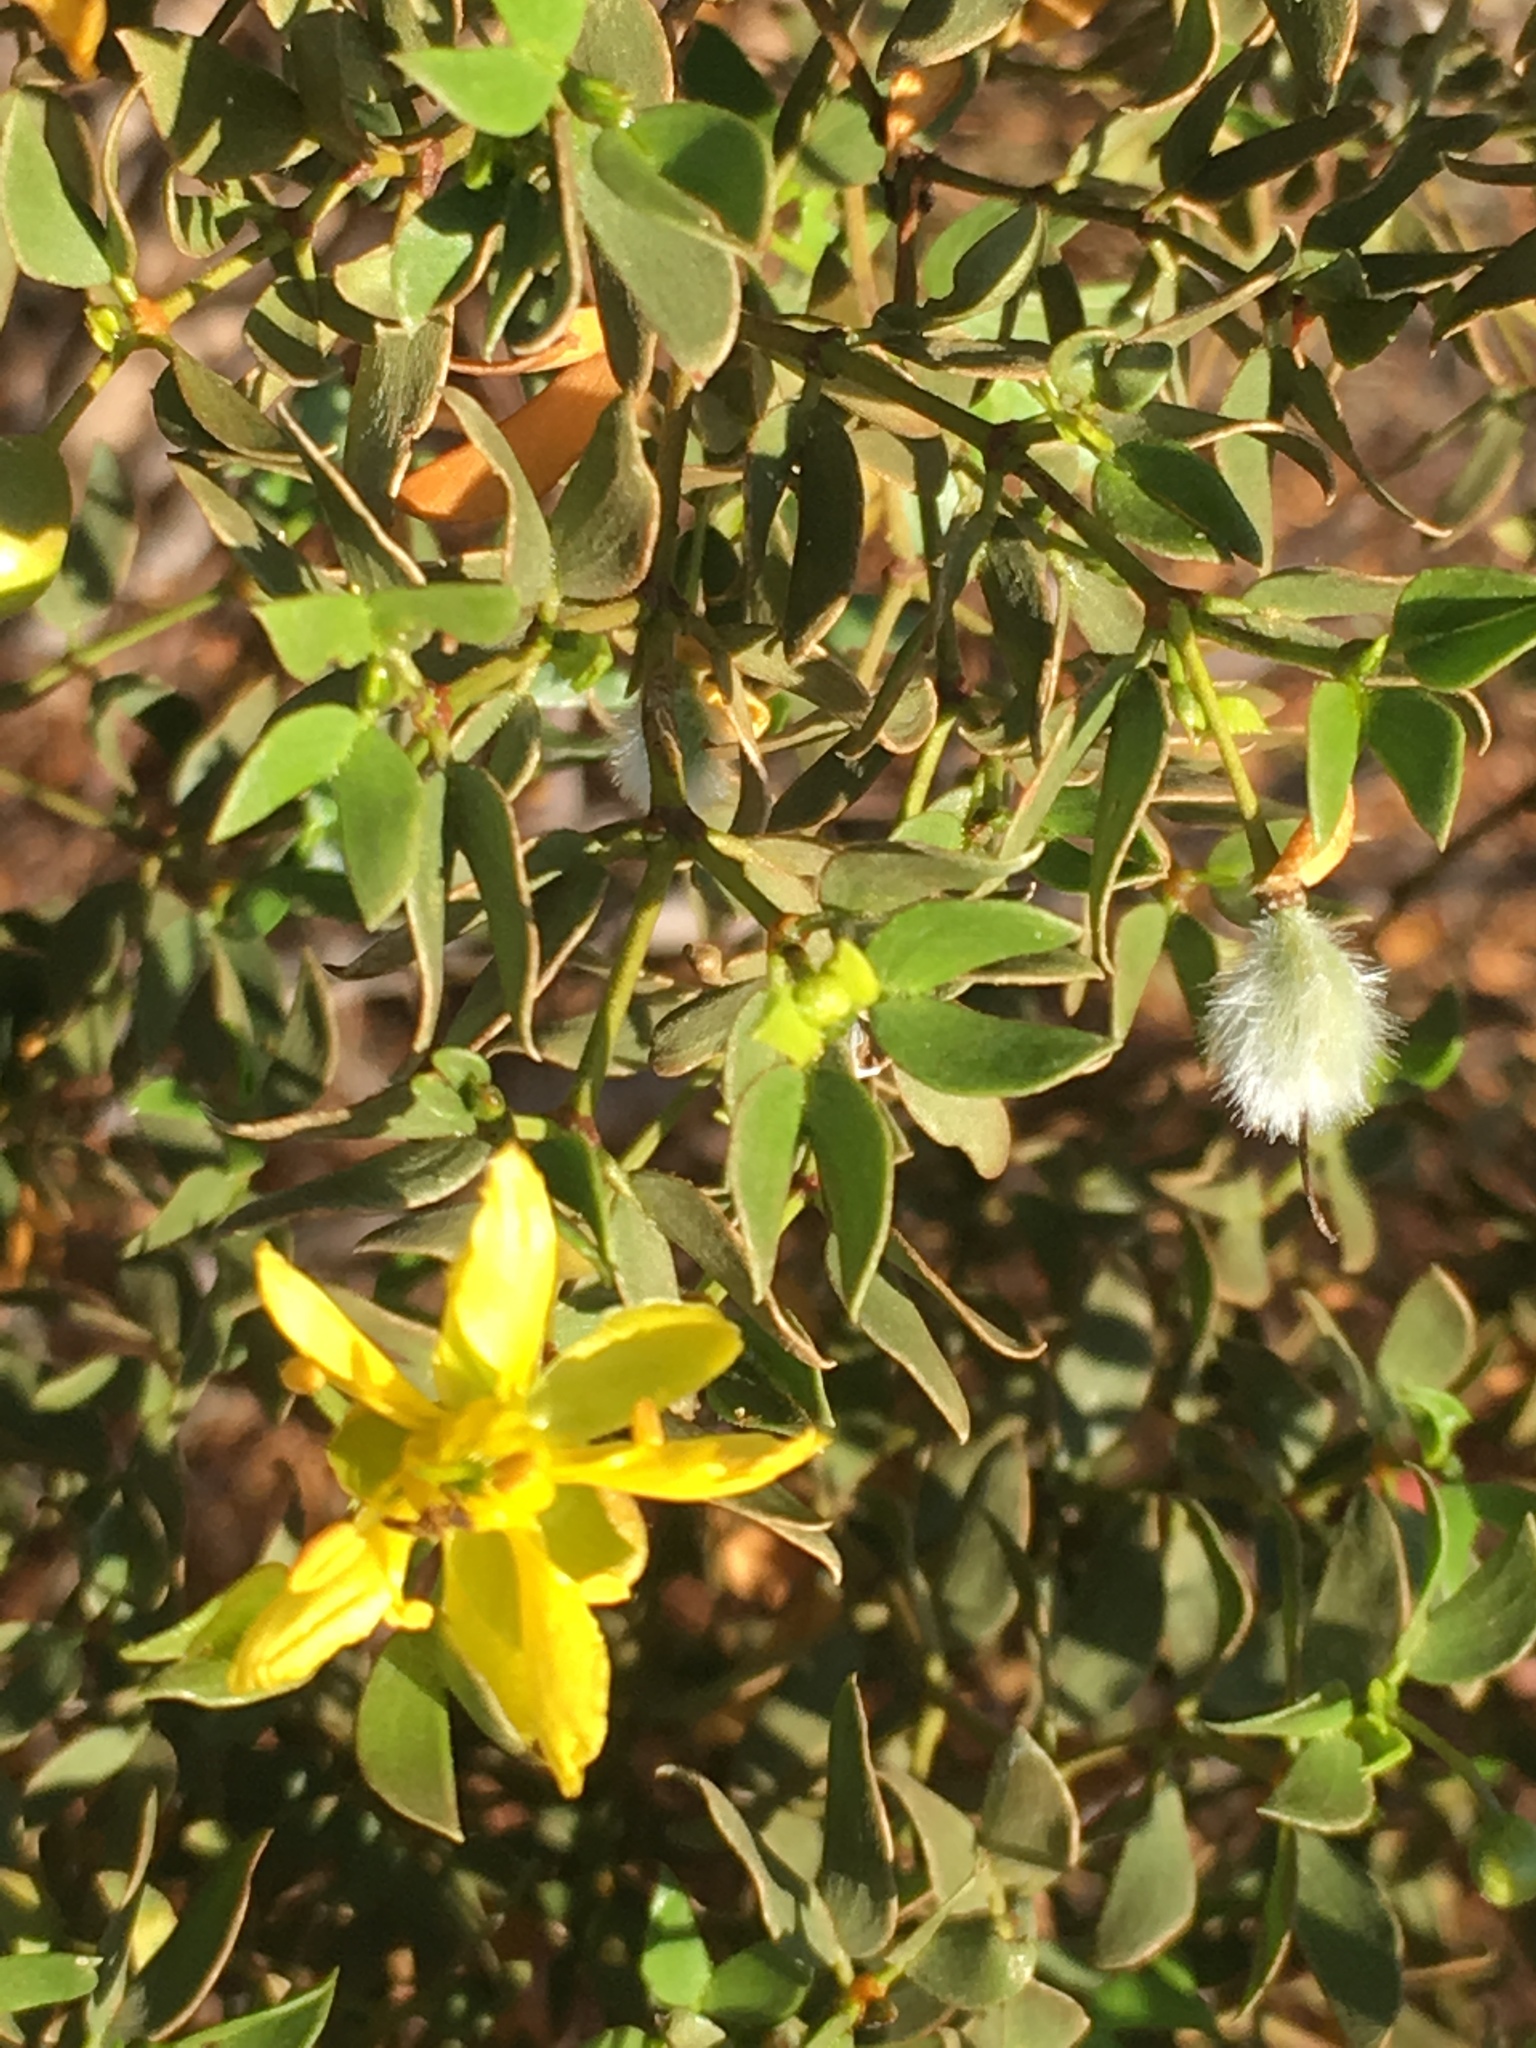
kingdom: Plantae
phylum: Tracheophyta
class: Magnoliopsida
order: Zygophyllales
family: Zygophyllaceae
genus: Larrea
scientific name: Larrea tridentata
